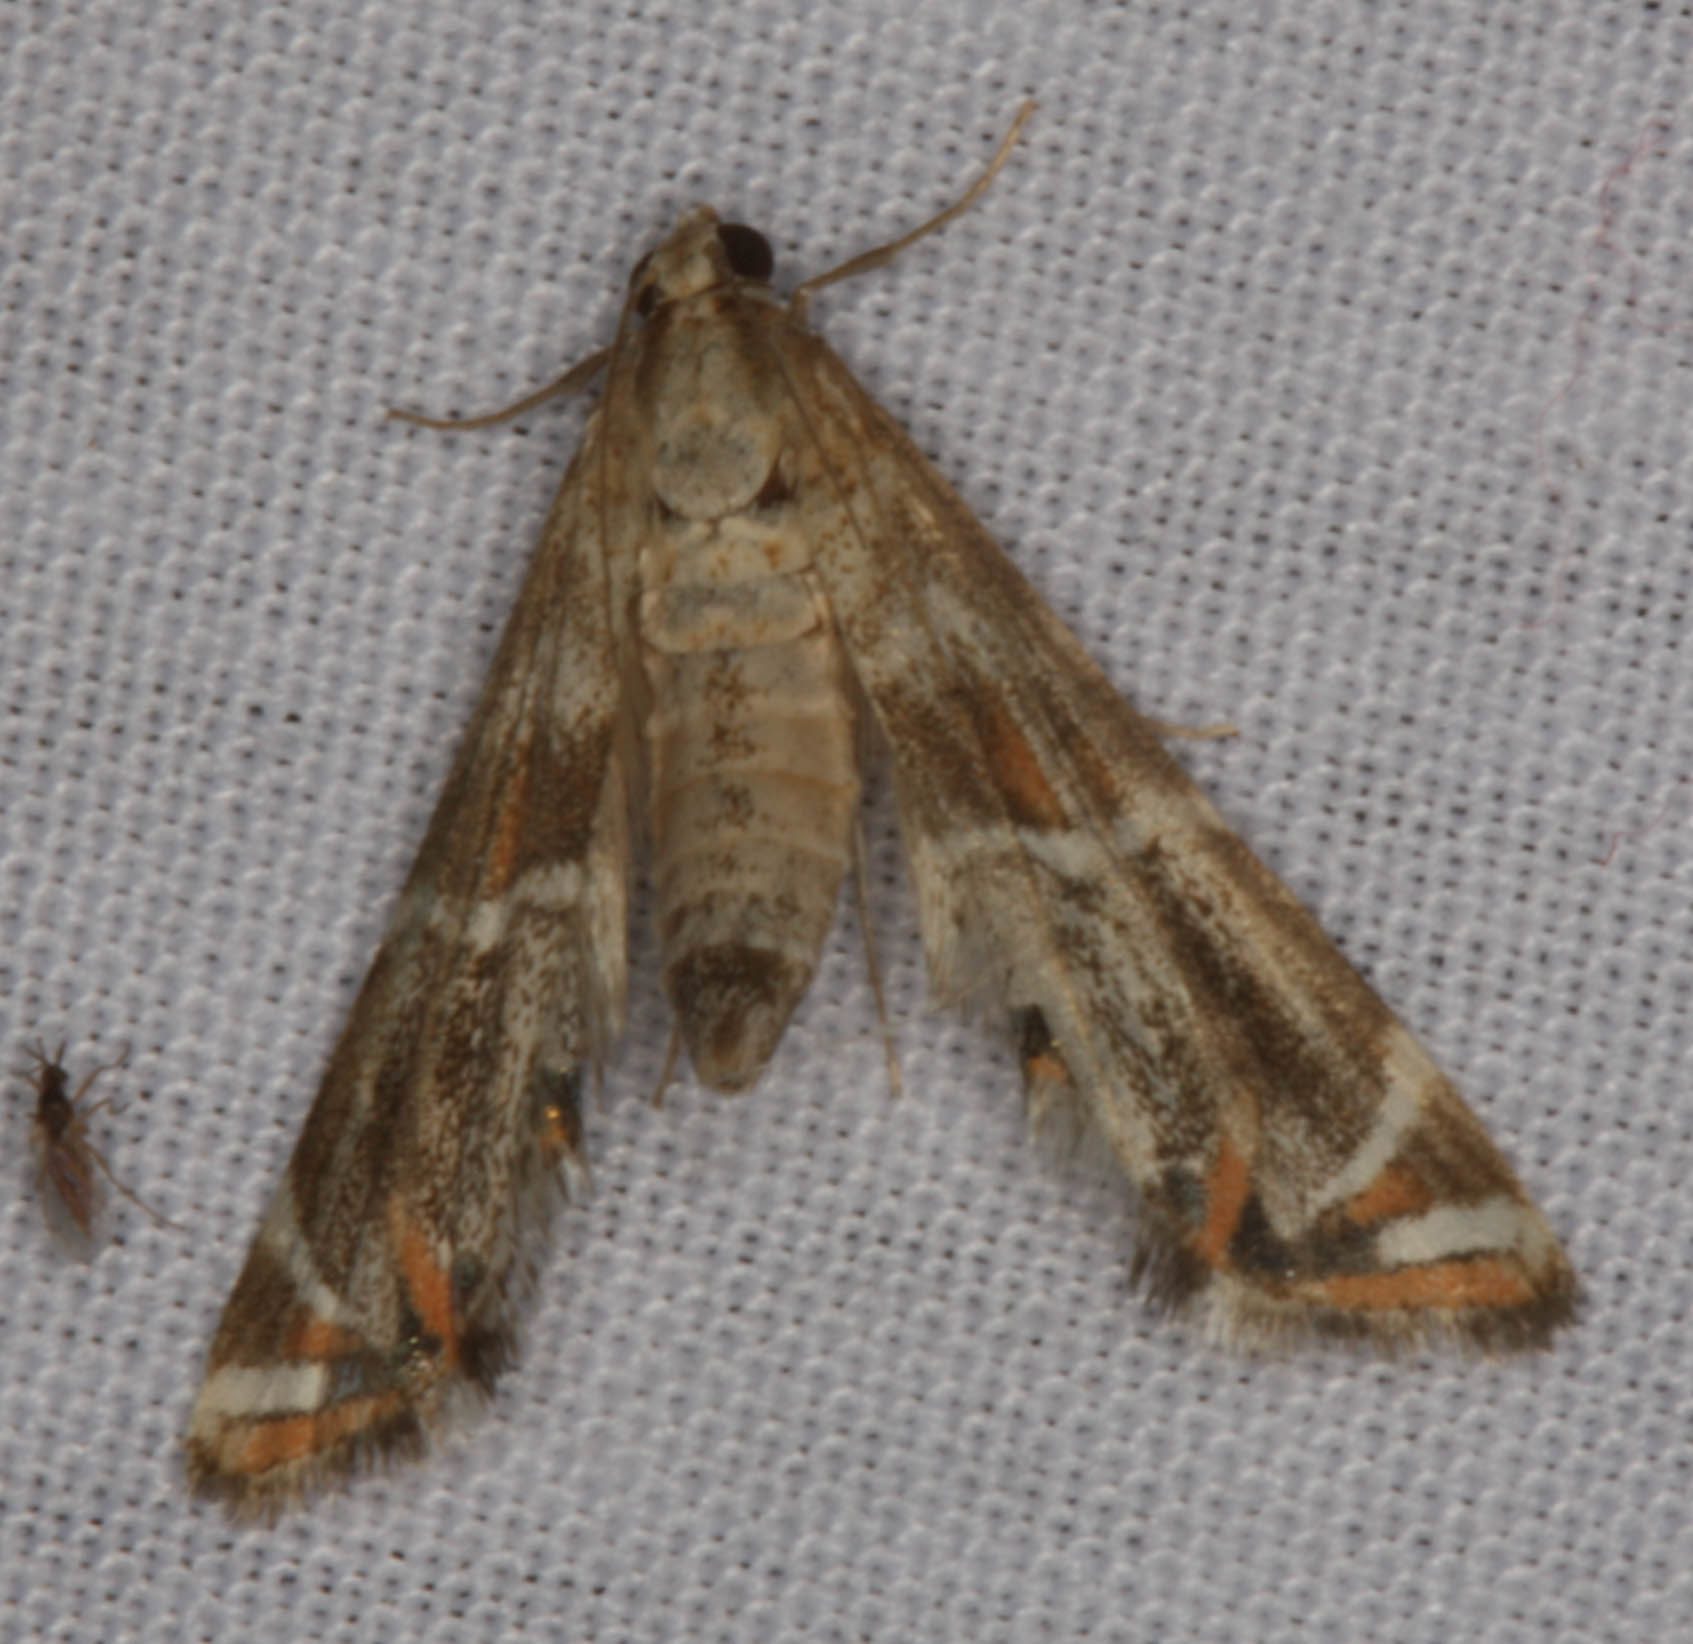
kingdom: Animalia
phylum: Arthropoda
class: Insecta
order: Lepidoptera
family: Crambidae
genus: Petrophila
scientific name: Petrophila jaliscalis
